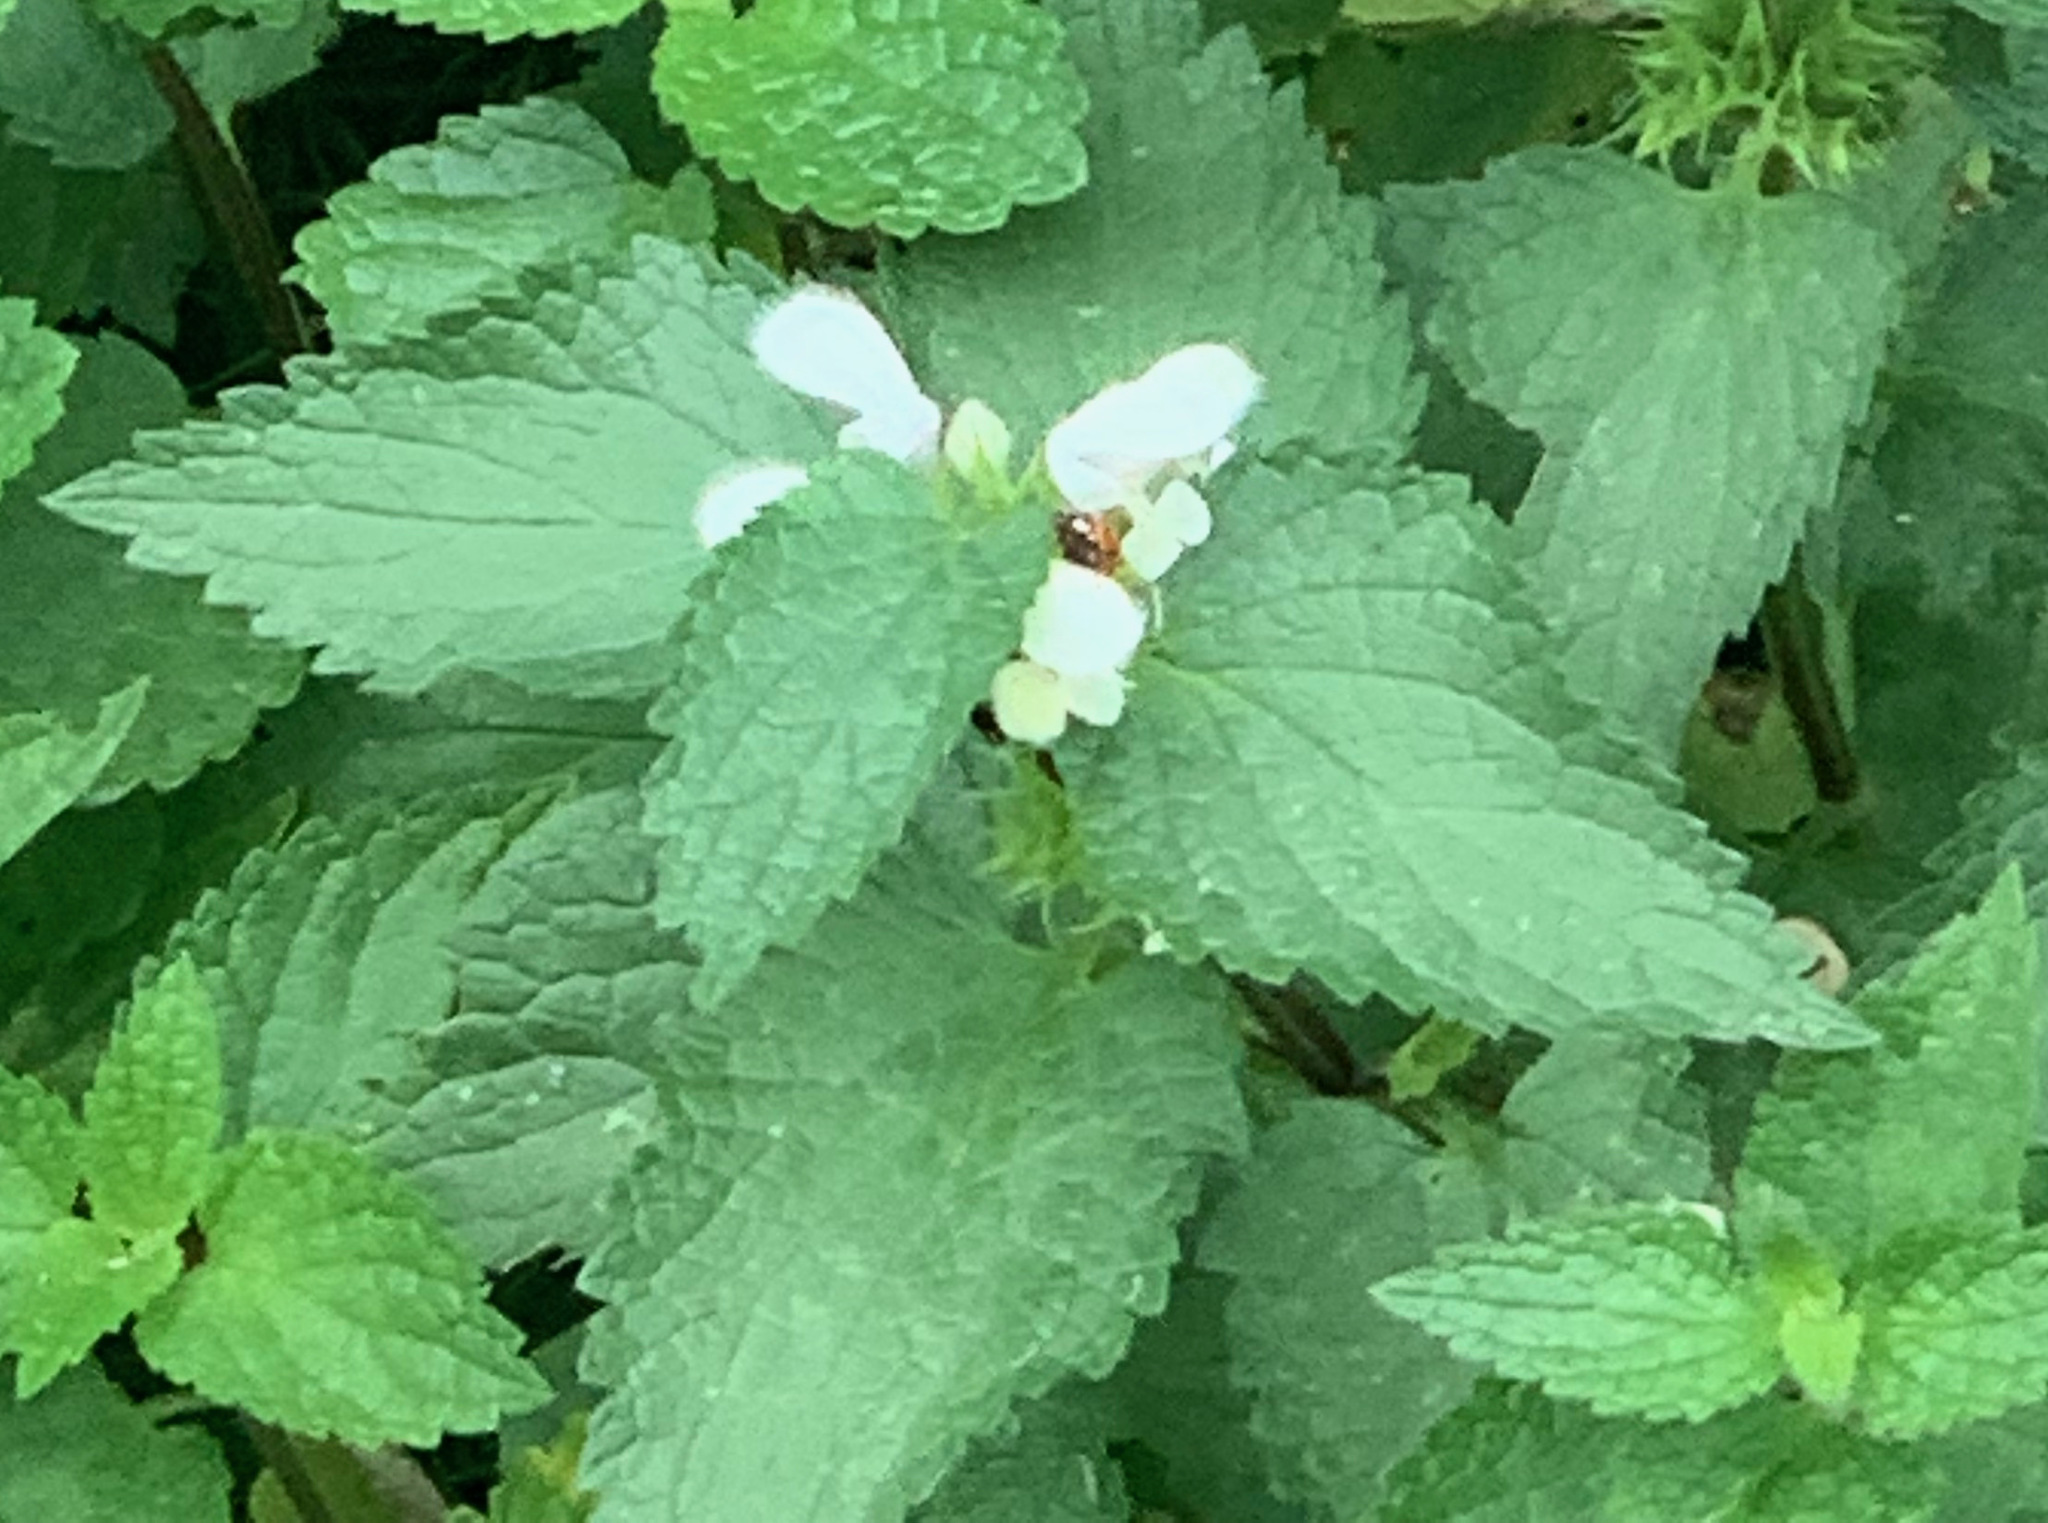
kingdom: Plantae
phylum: Tracheophyta
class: Magnoliopsida
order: Lamiales
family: Lamiaceae
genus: Lamium
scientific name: Lamium album
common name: White dead-nettle
